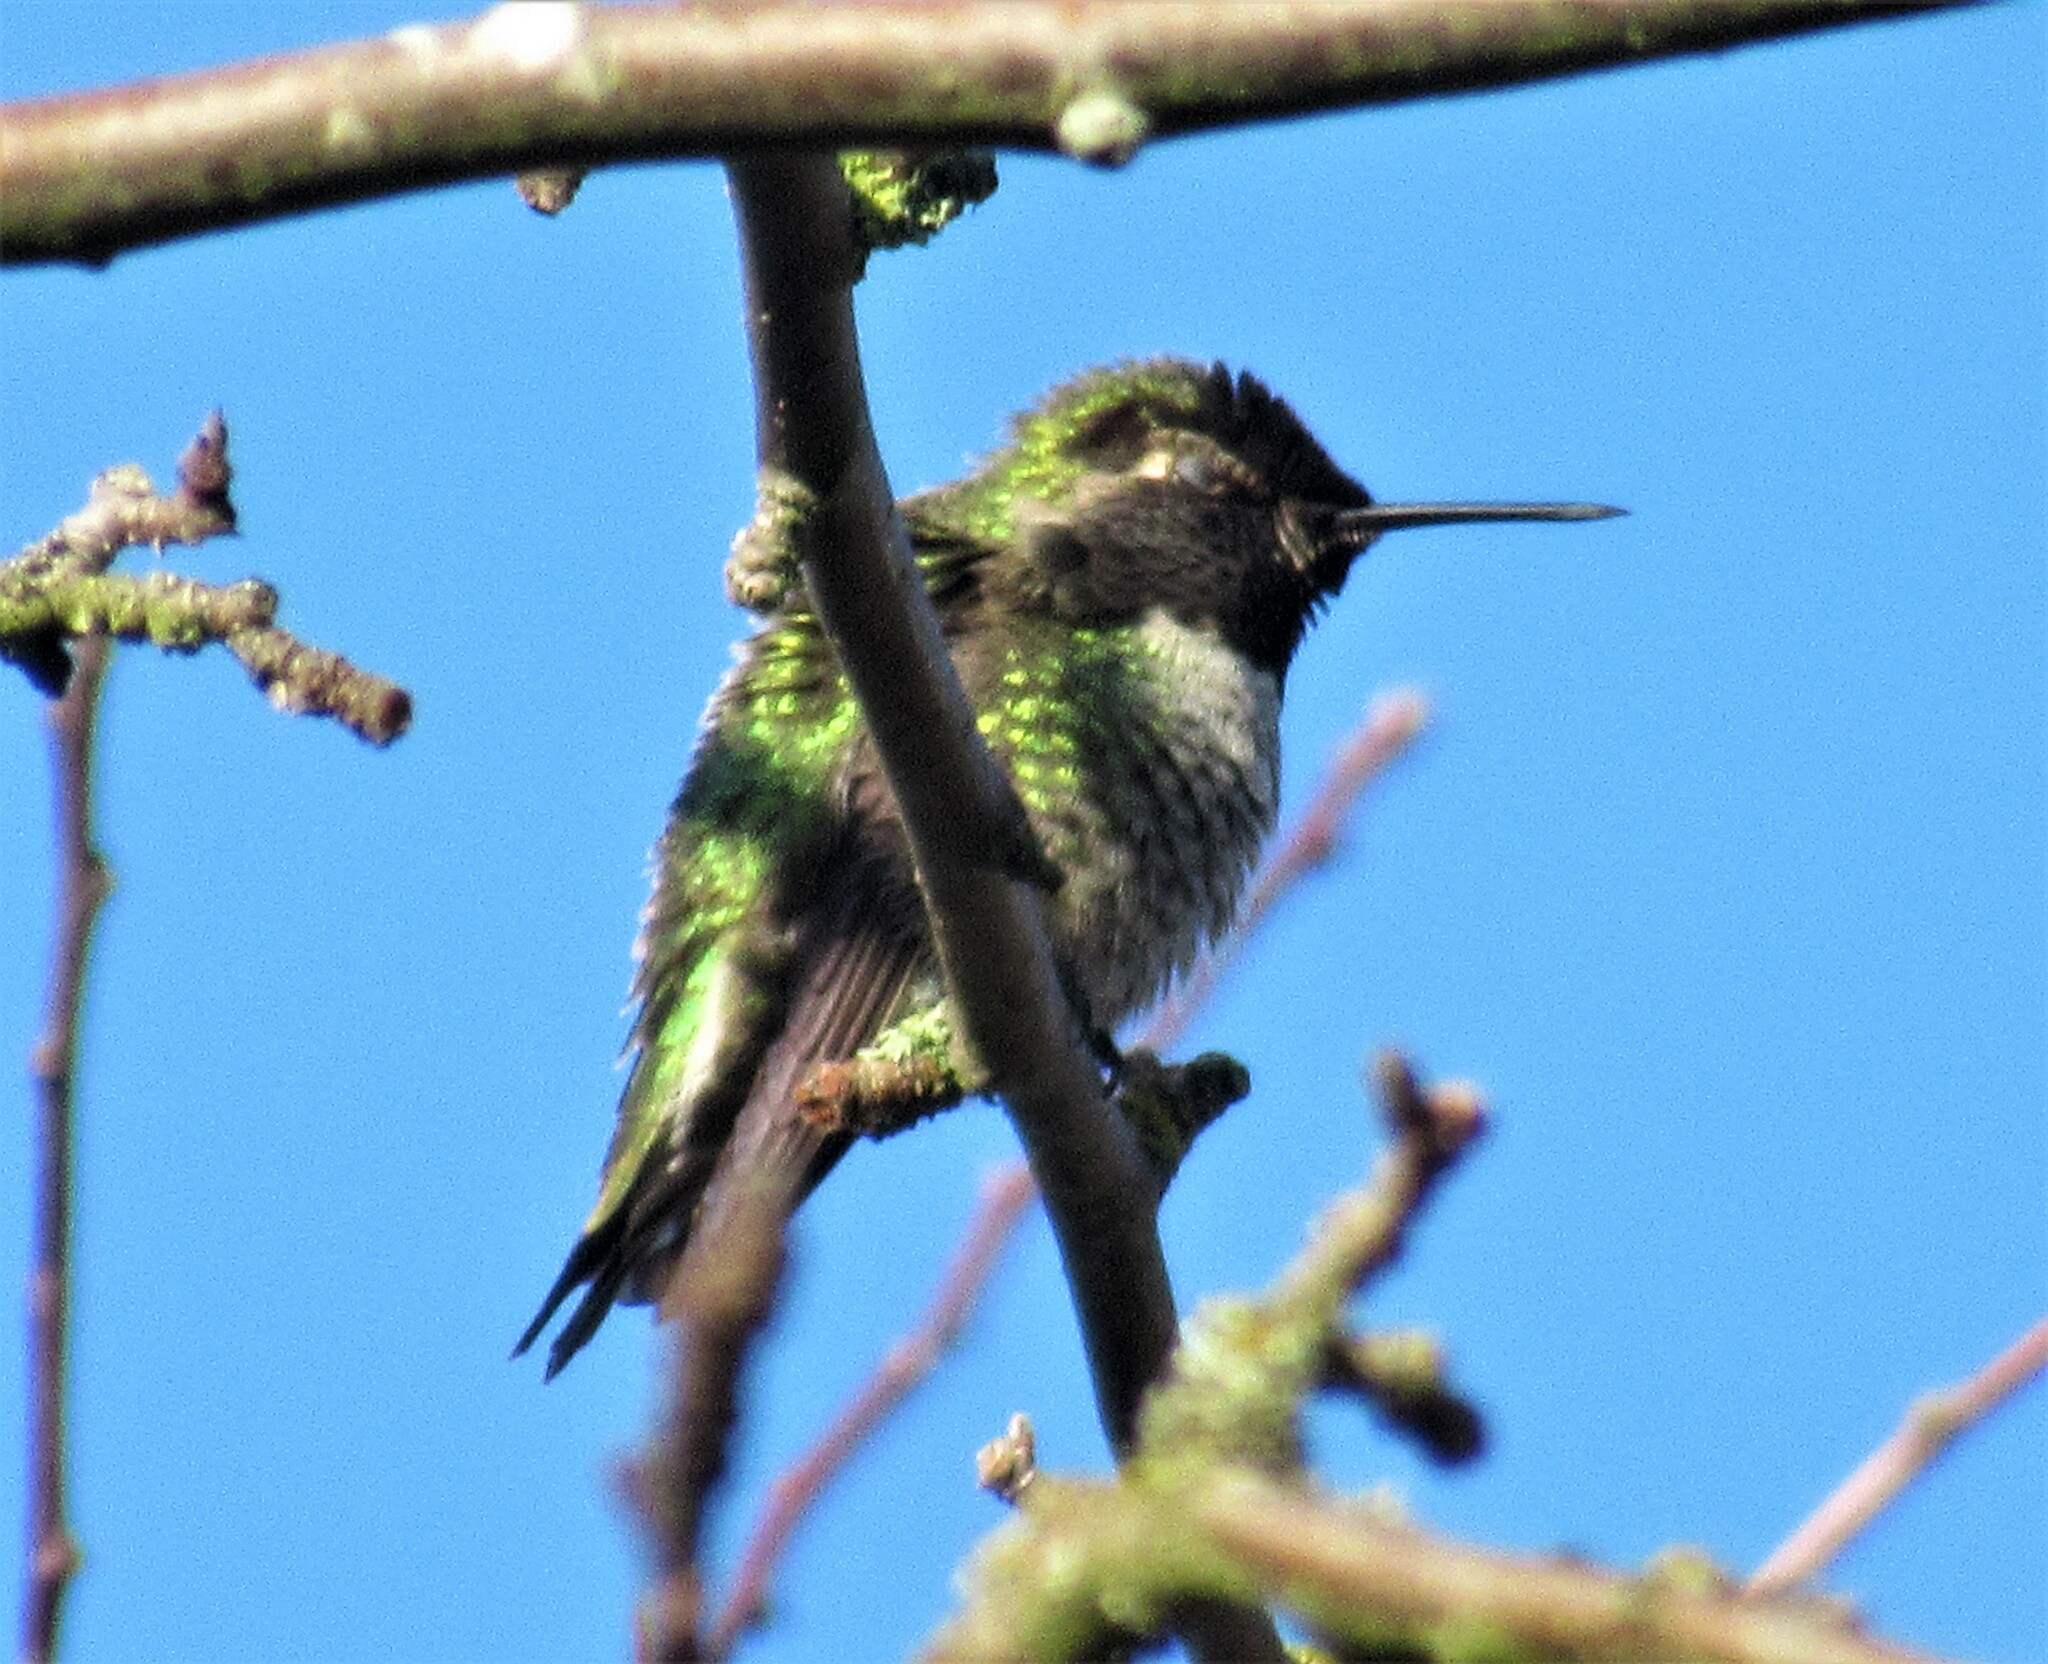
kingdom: Animalia
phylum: Chordata
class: Aves
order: Apodiformes
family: Trochilidae
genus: Calypte
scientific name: Calypte anna
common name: Anna's hummingbird
